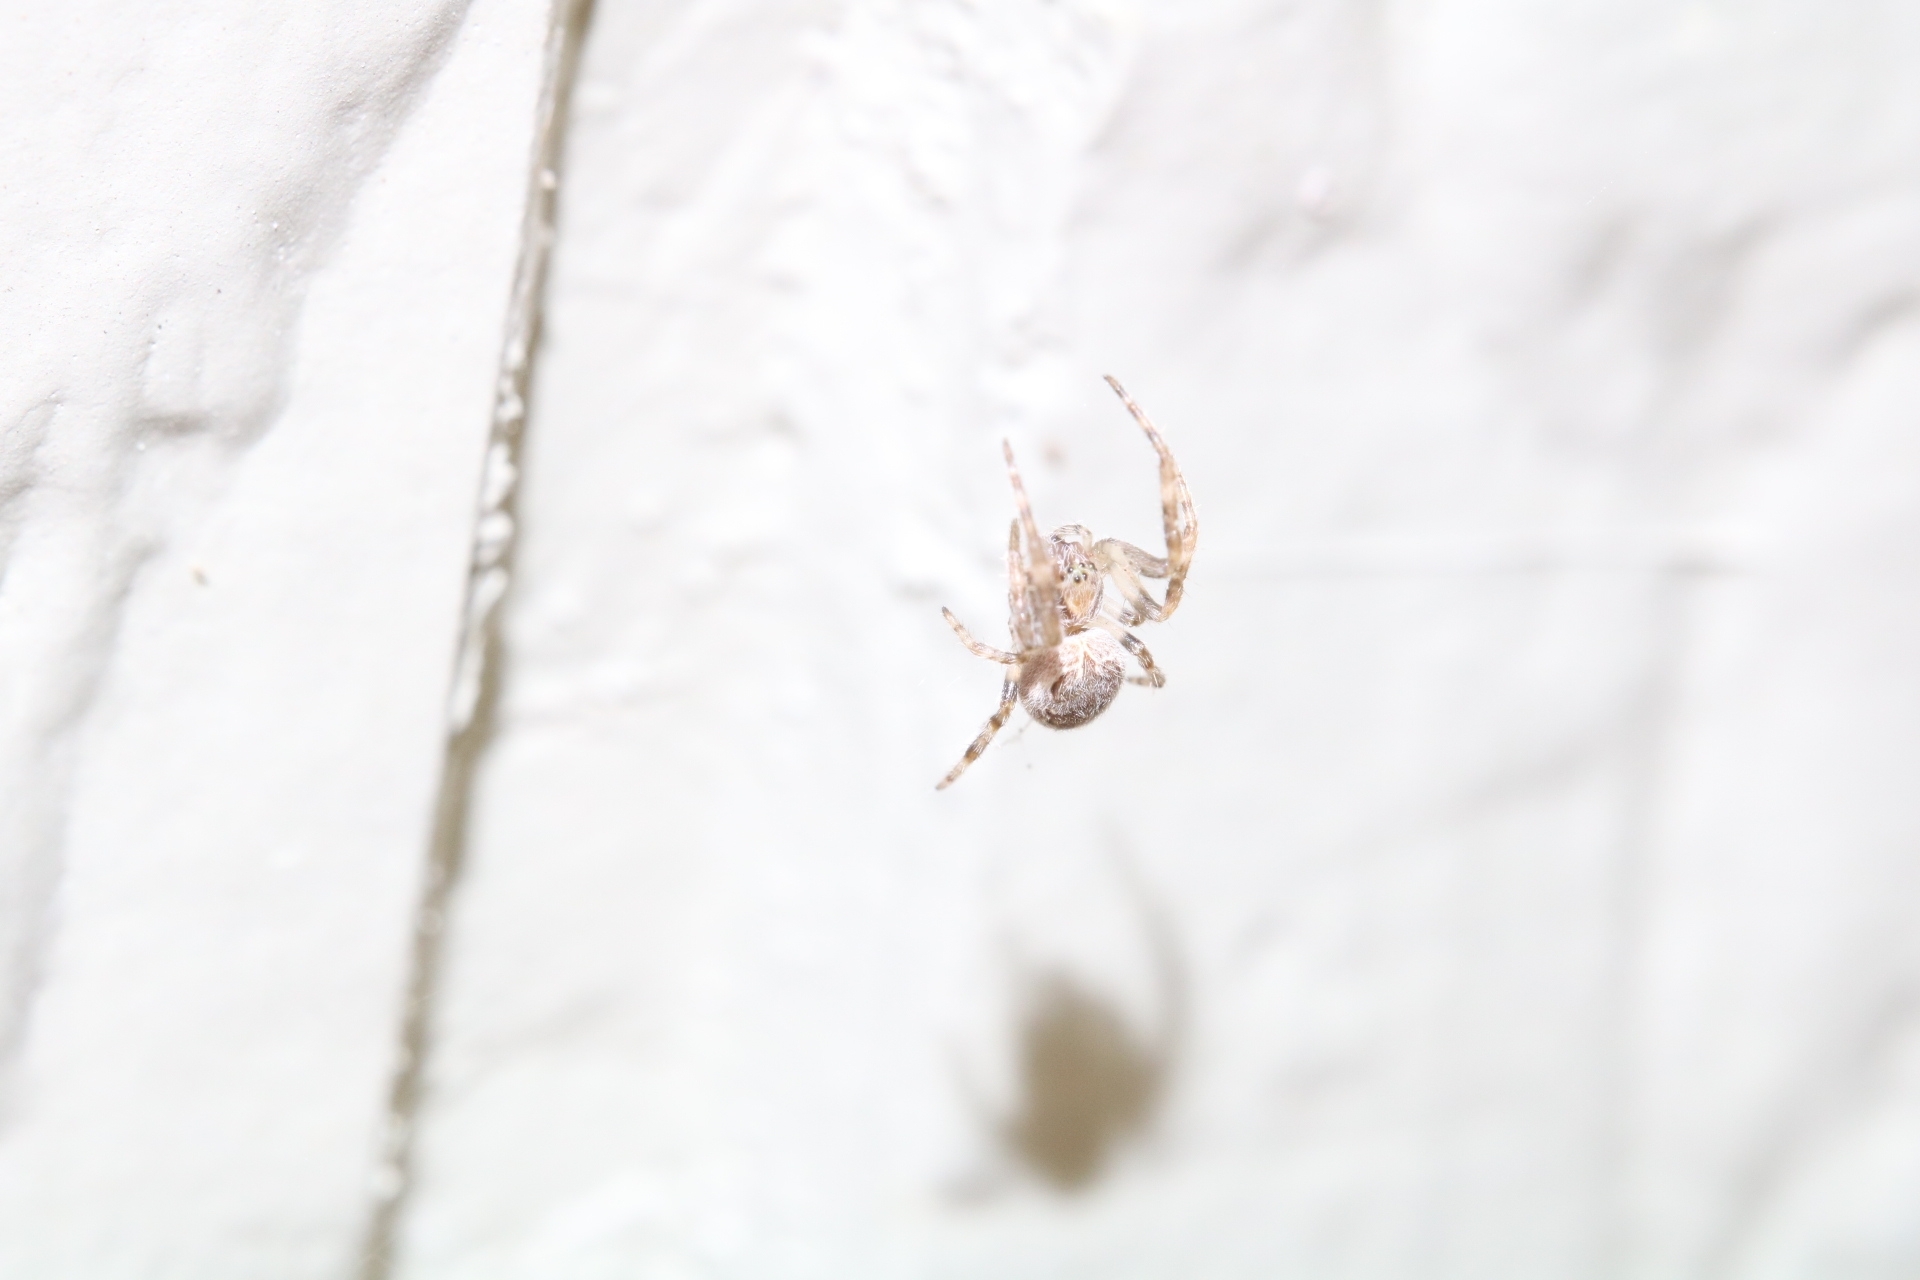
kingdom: Animalia
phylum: Arthropoda
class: Arachnida
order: Araneae
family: Araneidae
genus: Larinioides
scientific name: Larinioides cornutus
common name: Furrow orbweaver
